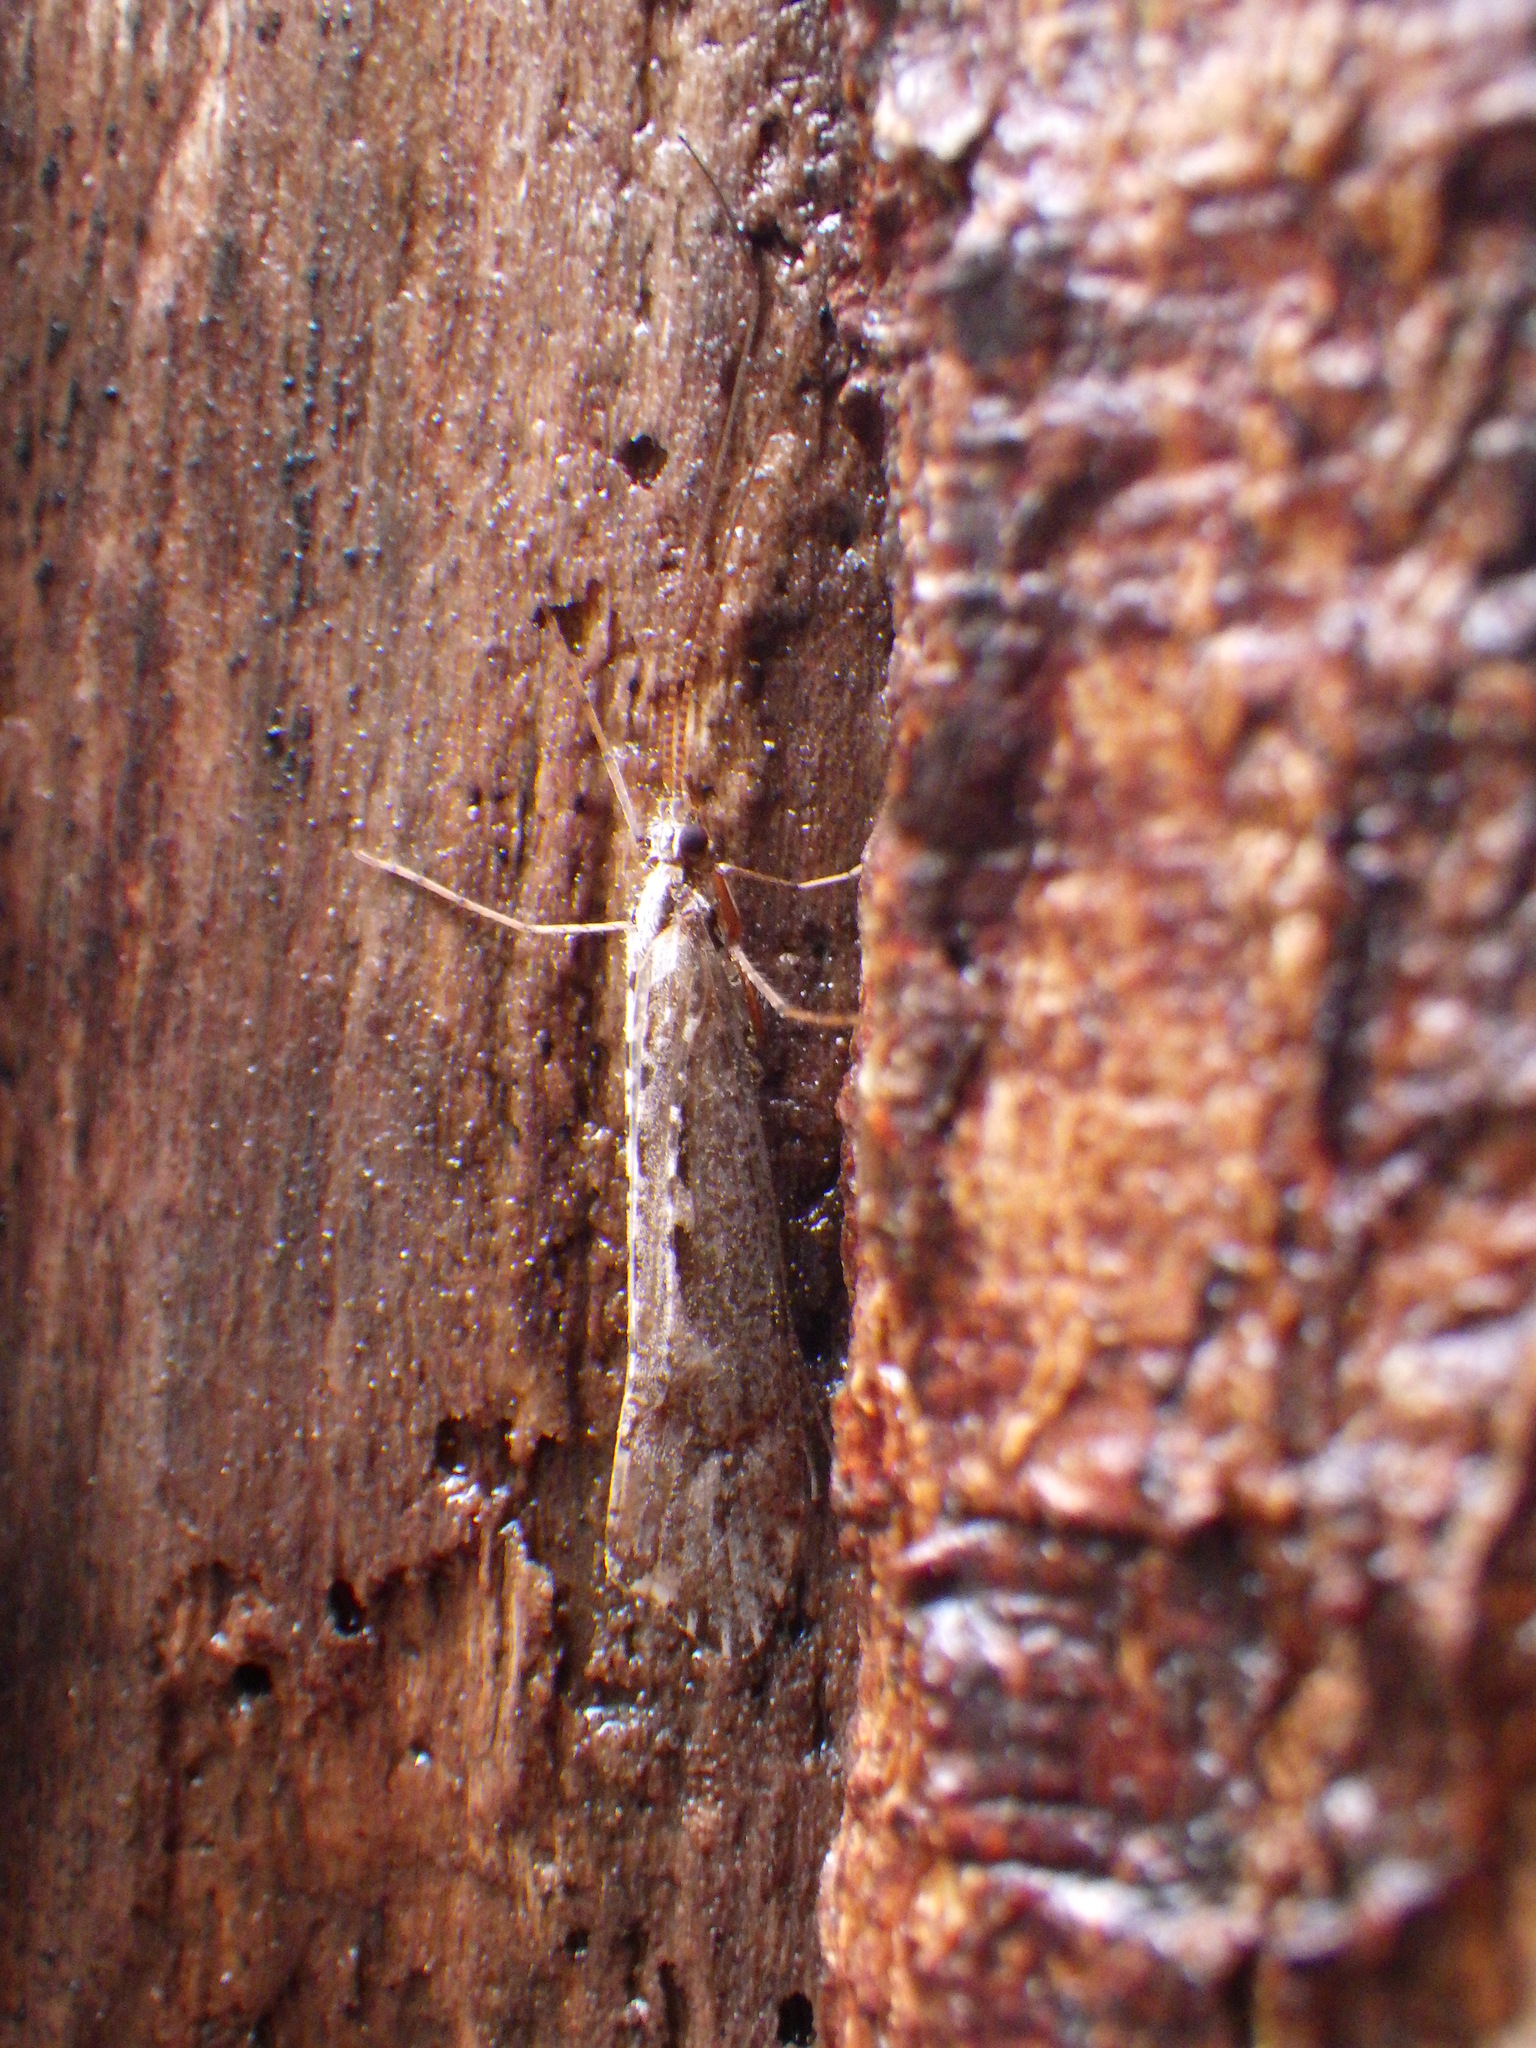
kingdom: Animalia
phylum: Arthropoda
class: Insecta
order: Trichoptera
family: Limnephilidae
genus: Glyphopsyche
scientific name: Glyphopsyche irrorata
